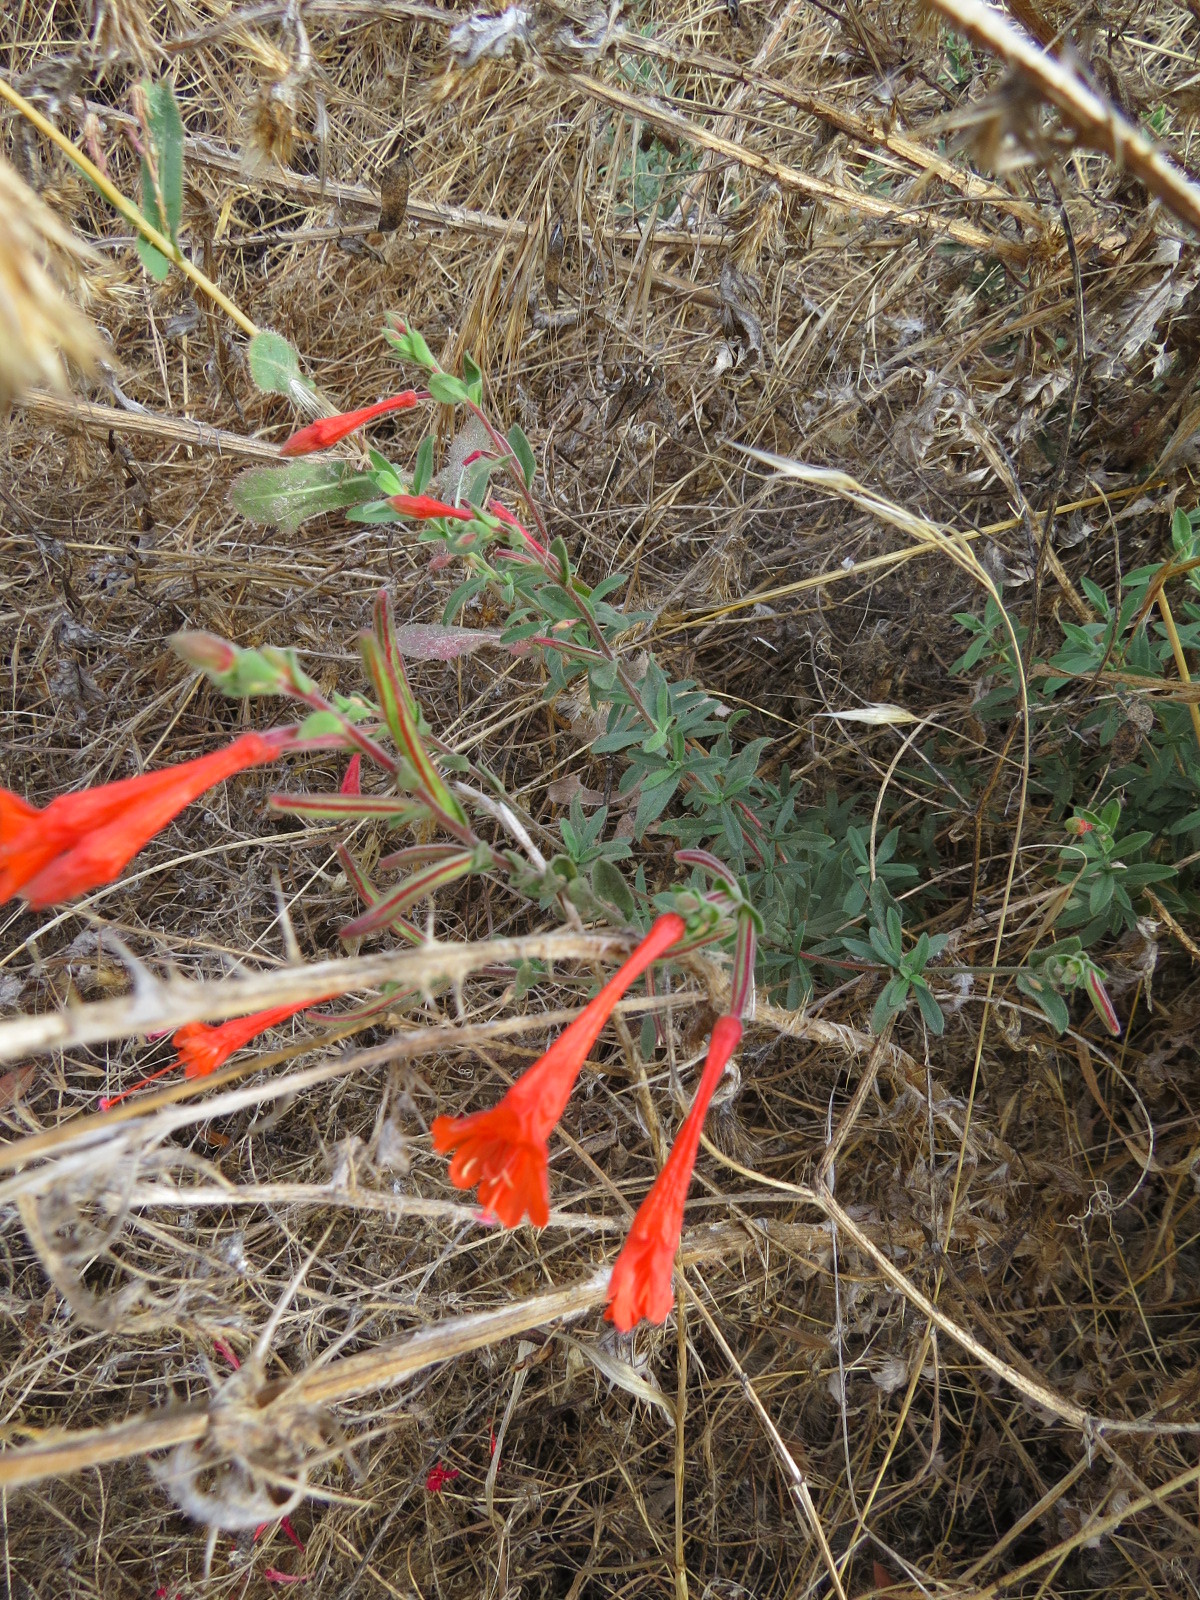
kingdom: Plantae
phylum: Tracheophyta
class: Magnoliopsida
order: Myrtales
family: Onagraceae
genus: Epilobium
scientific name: Epilobium canum
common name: California-fuchsia
